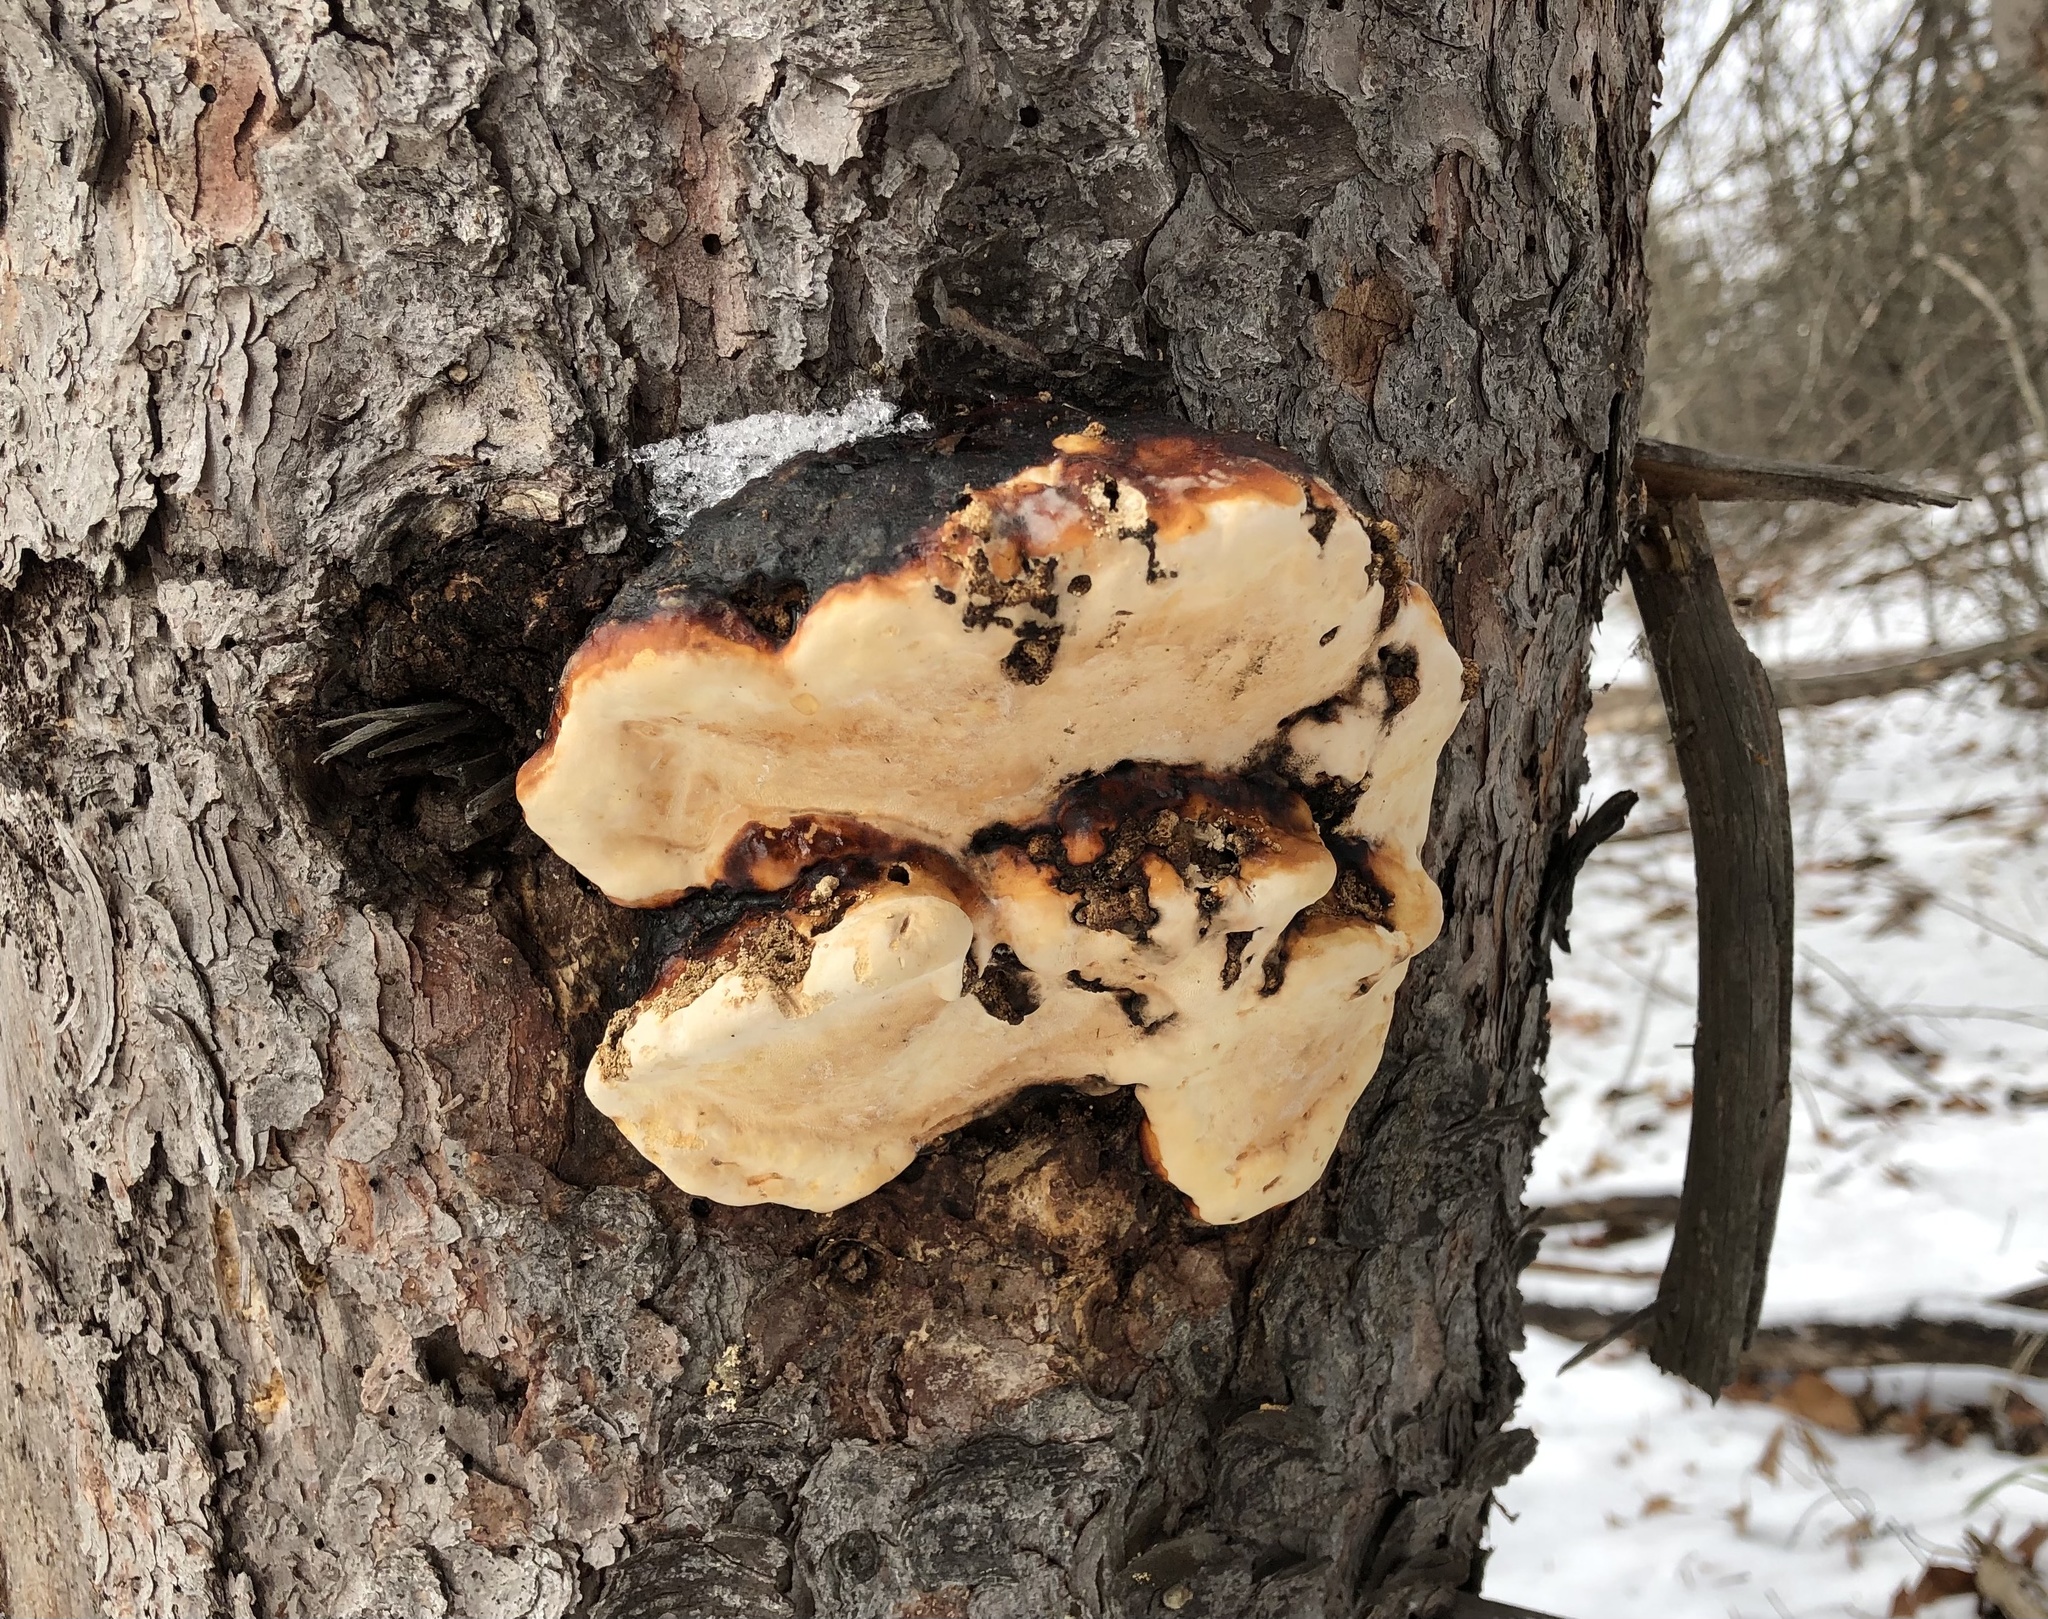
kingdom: Fungi
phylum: Basidiomycota
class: Agaricomycetes
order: Polyporales
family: Fomitopsidaceae
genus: Fomitopsis
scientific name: Fomitopsis mounceae
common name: Northern red belt
